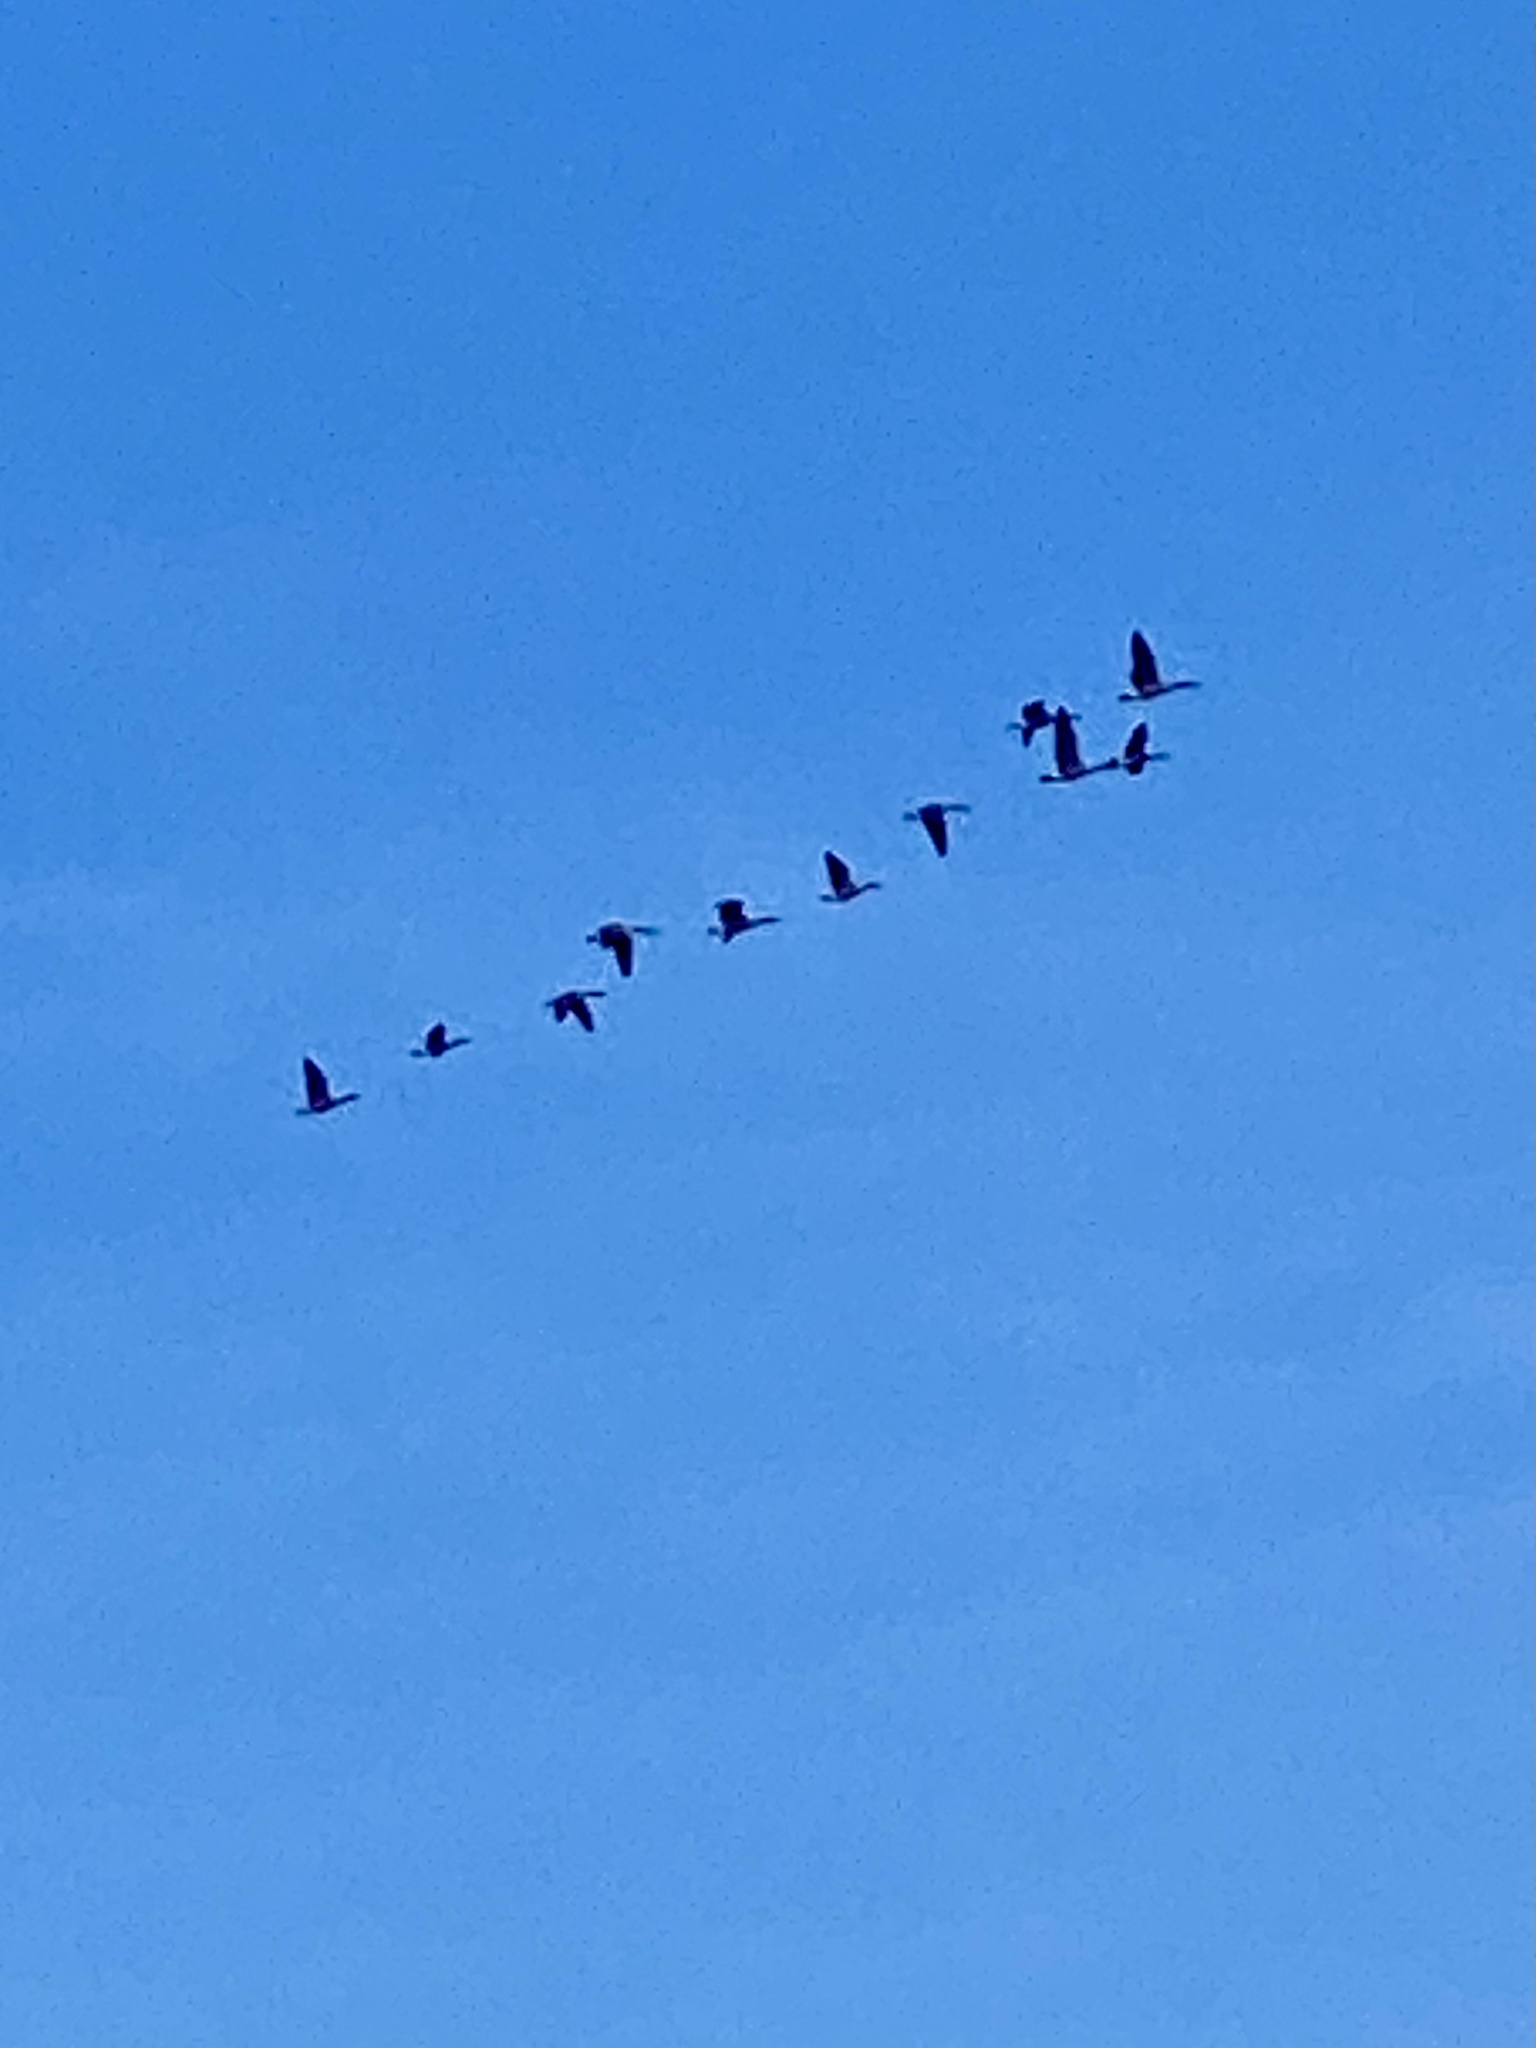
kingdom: Animalia
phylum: Chordata
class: Aves
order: Anseriformes
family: Anatidae
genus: Branta
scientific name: Branta canadensis
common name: Canada goose
